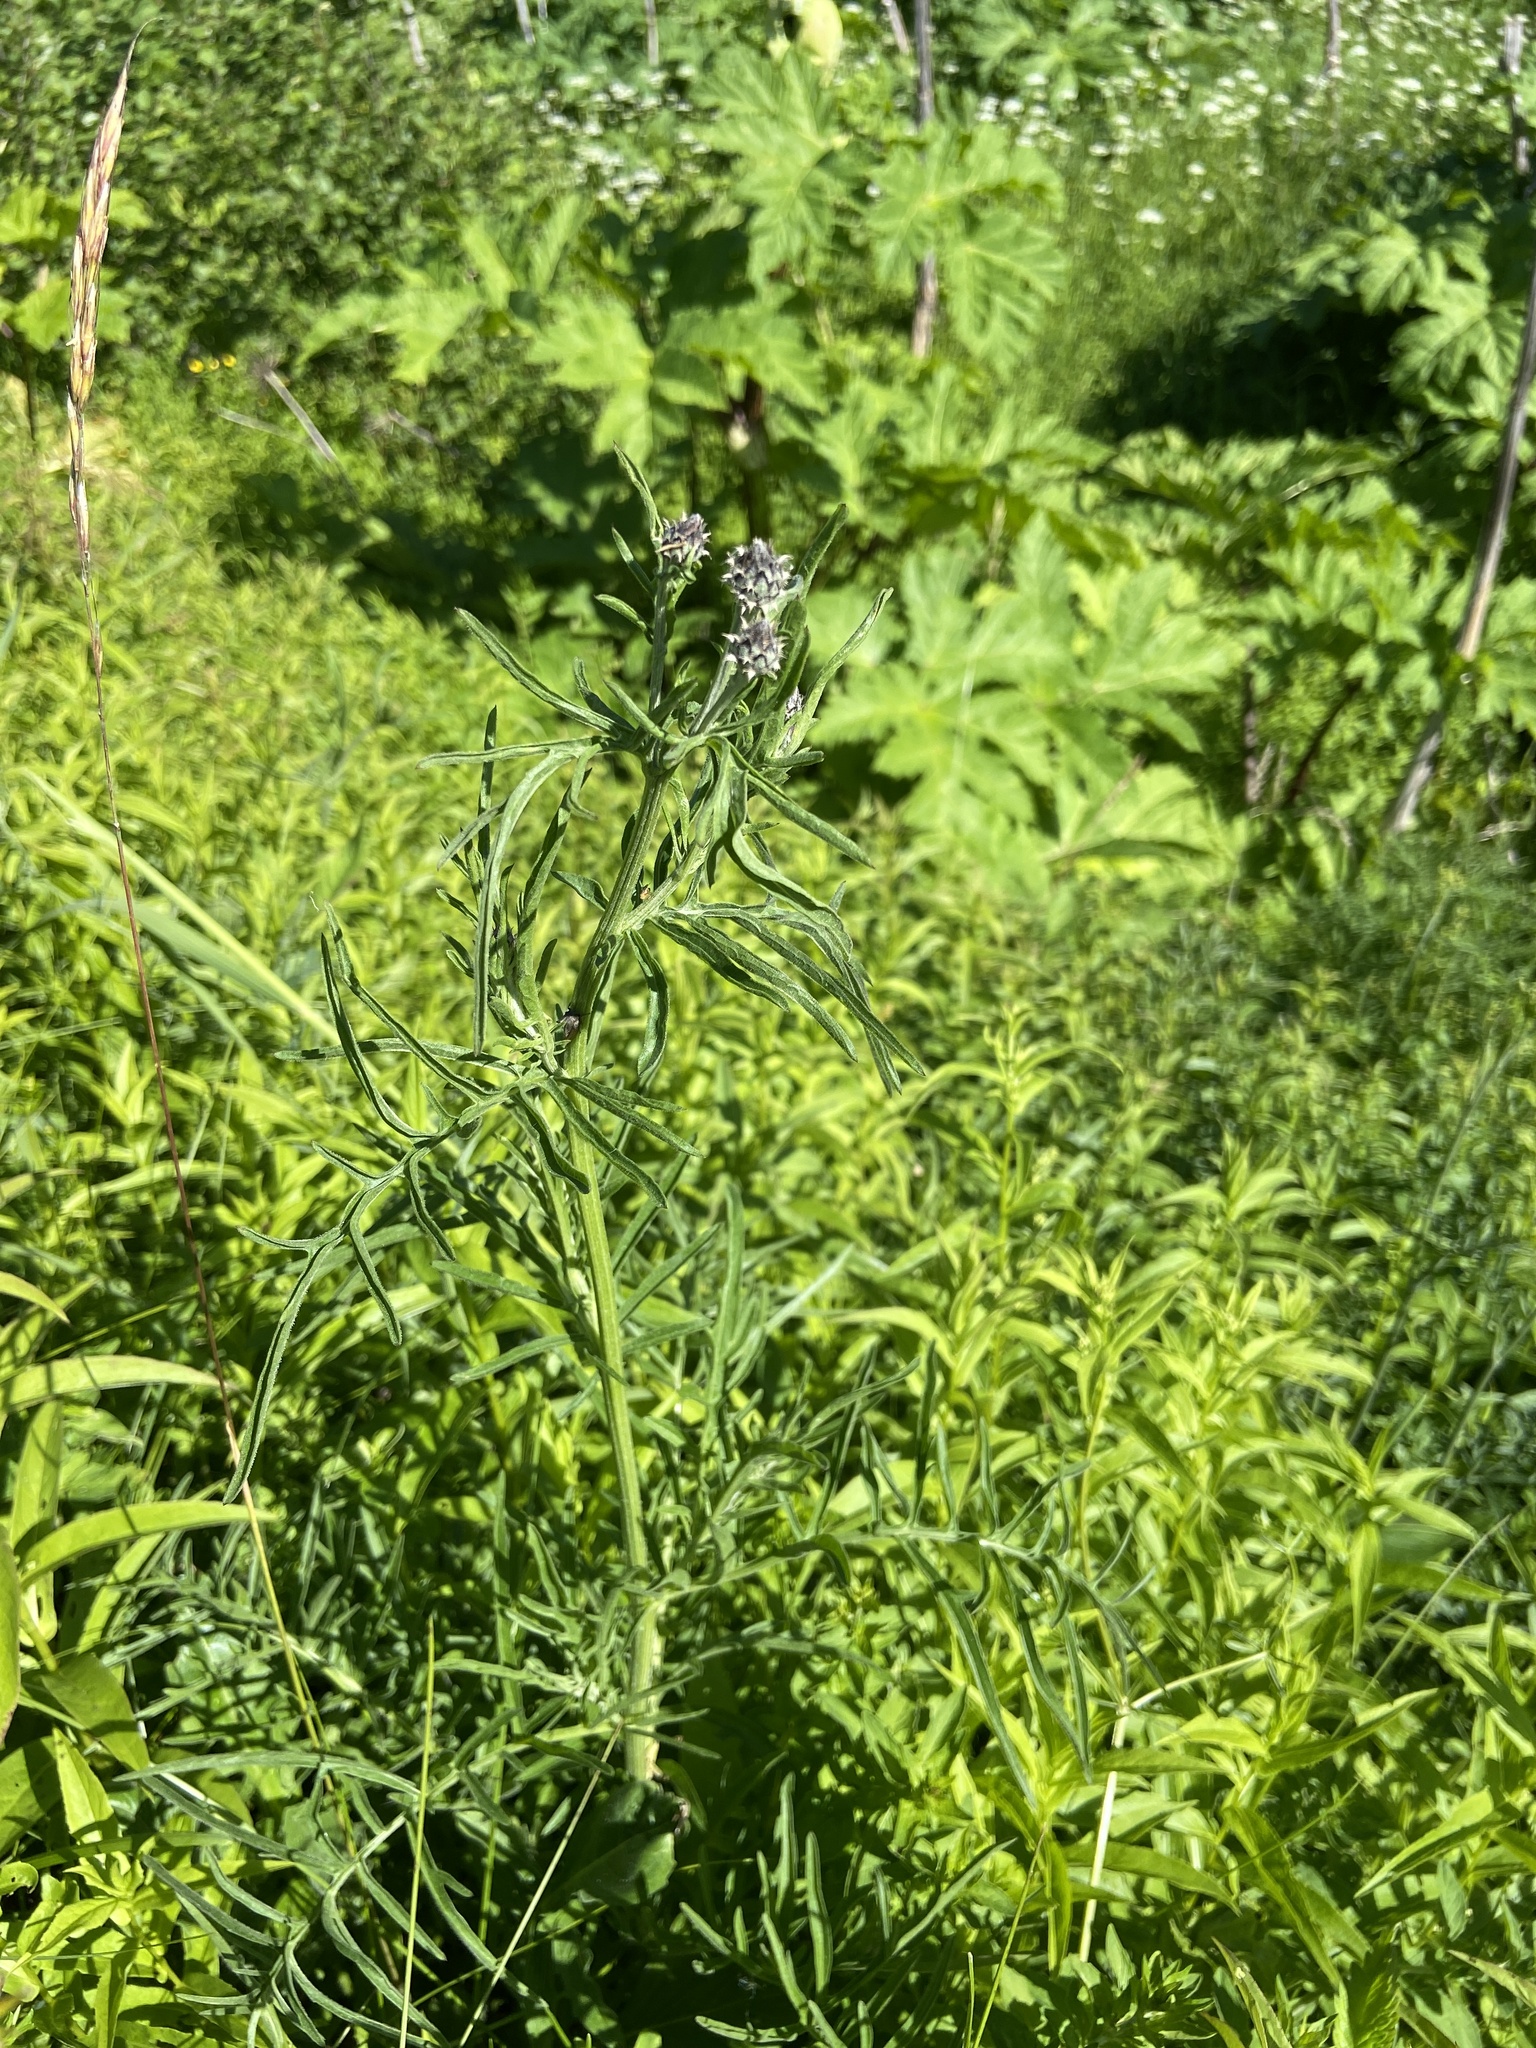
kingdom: Plantae
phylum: Tracheophyta
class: Magnoliopsida
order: Asterales
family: Asteraceae
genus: Centaurea
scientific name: Centaurea scabiosa
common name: Greater knapweed
